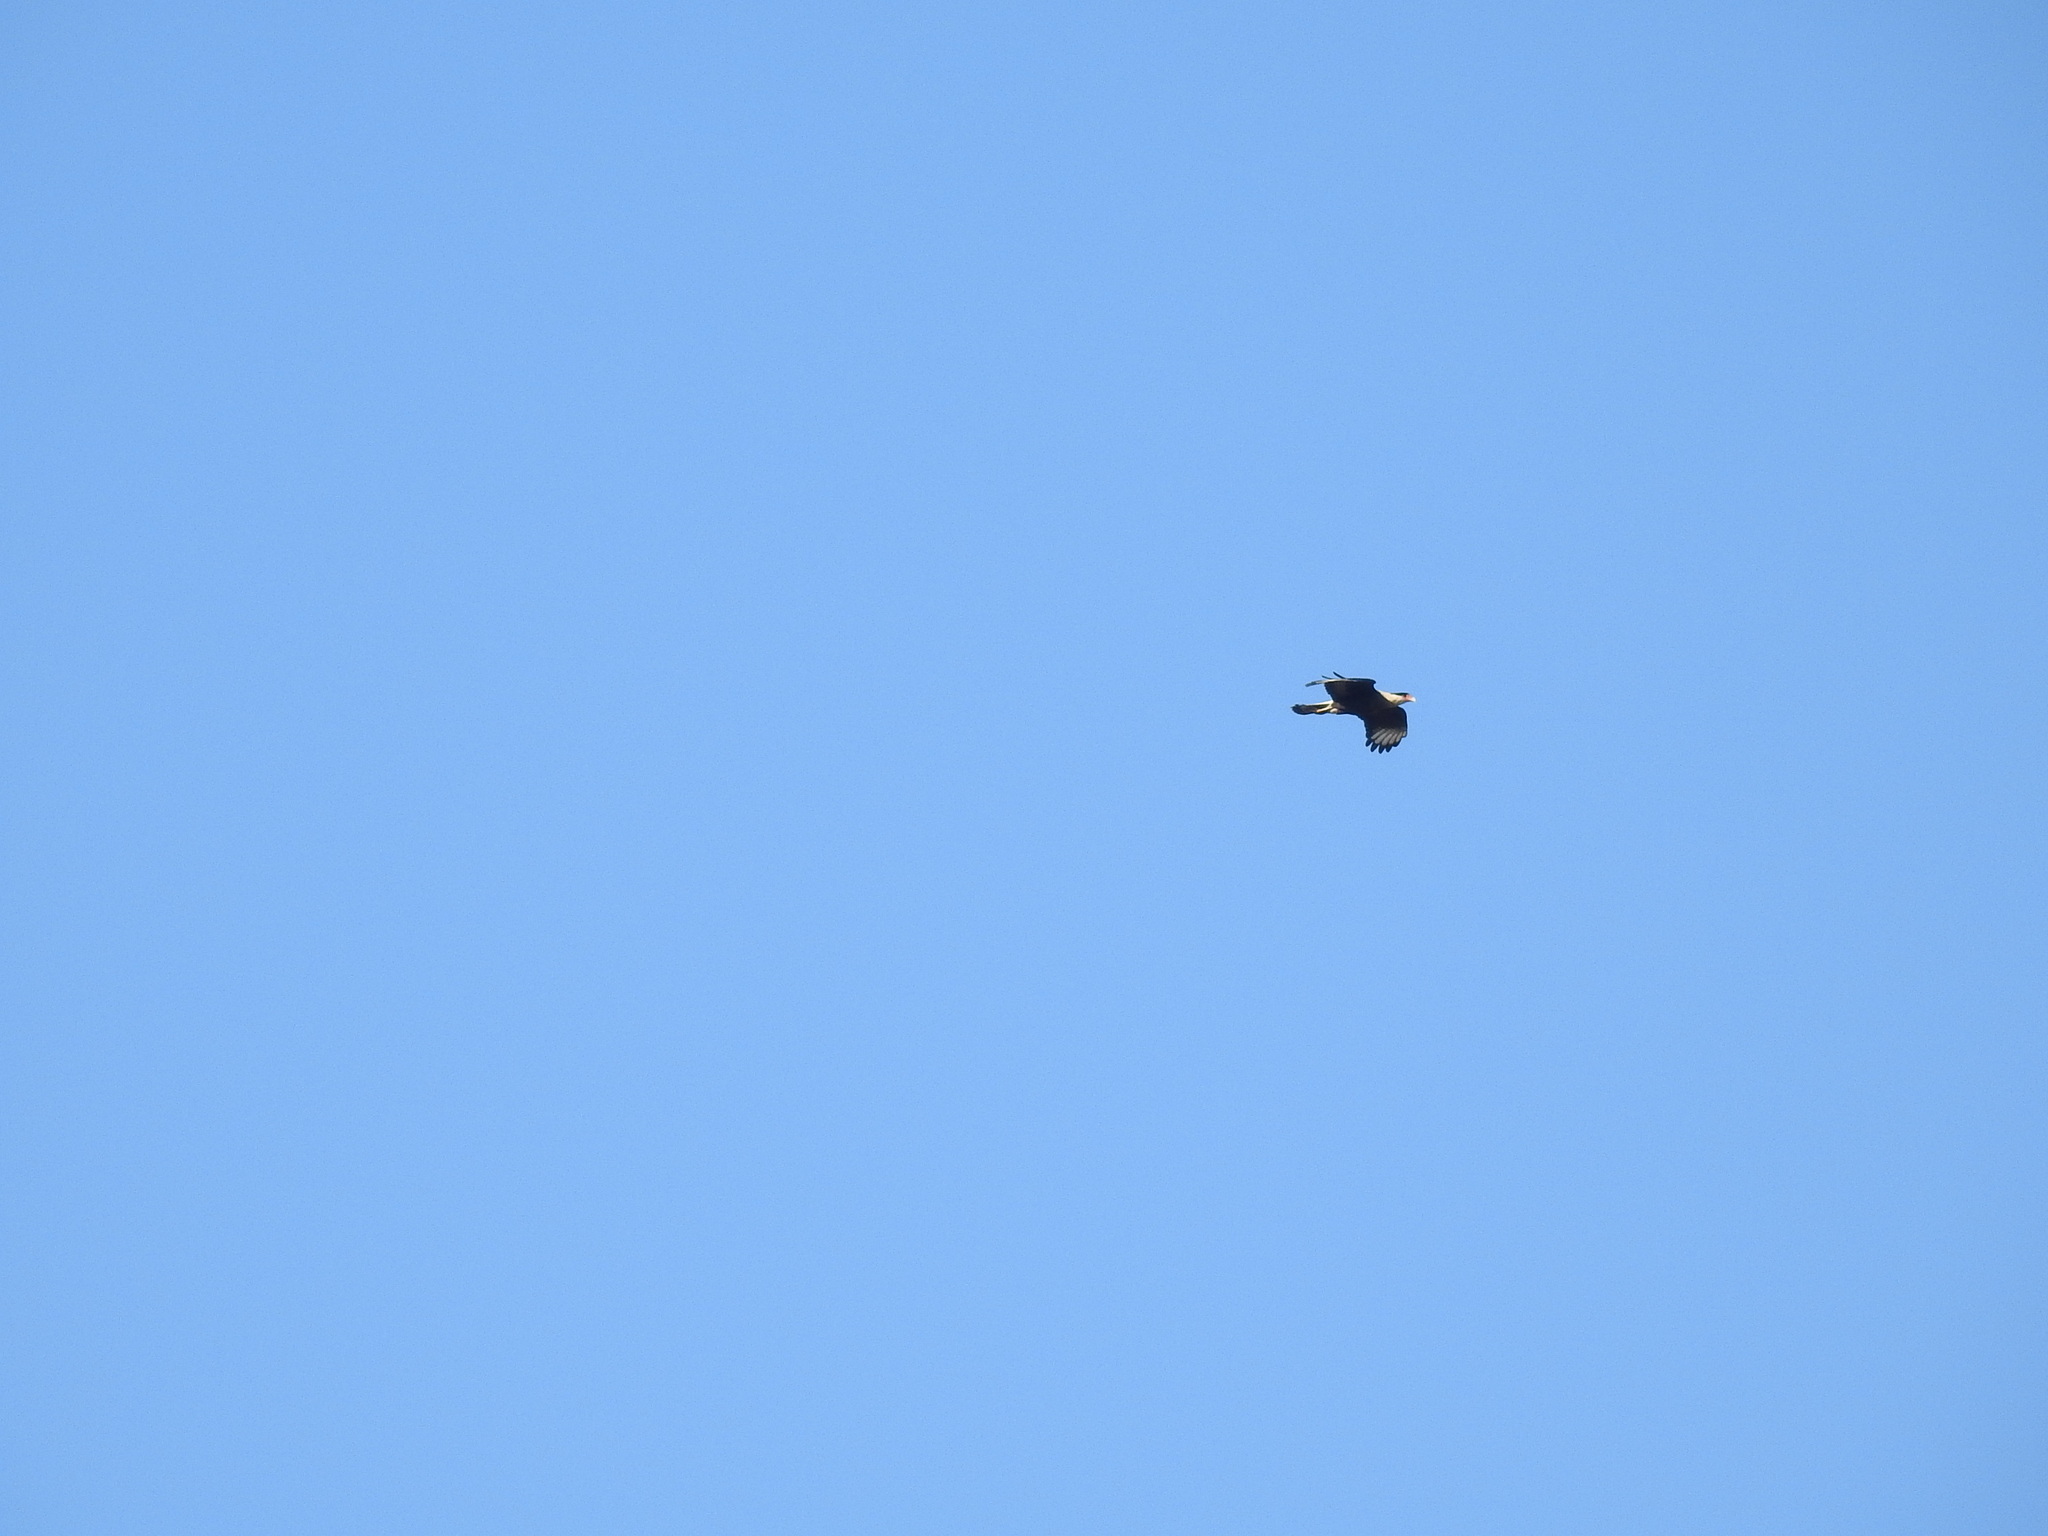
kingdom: Animalia
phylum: Chordata
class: Aves
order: Falconiformes
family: Falconidae
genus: Caracara
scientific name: Caracara plancus
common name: Southern caracara
